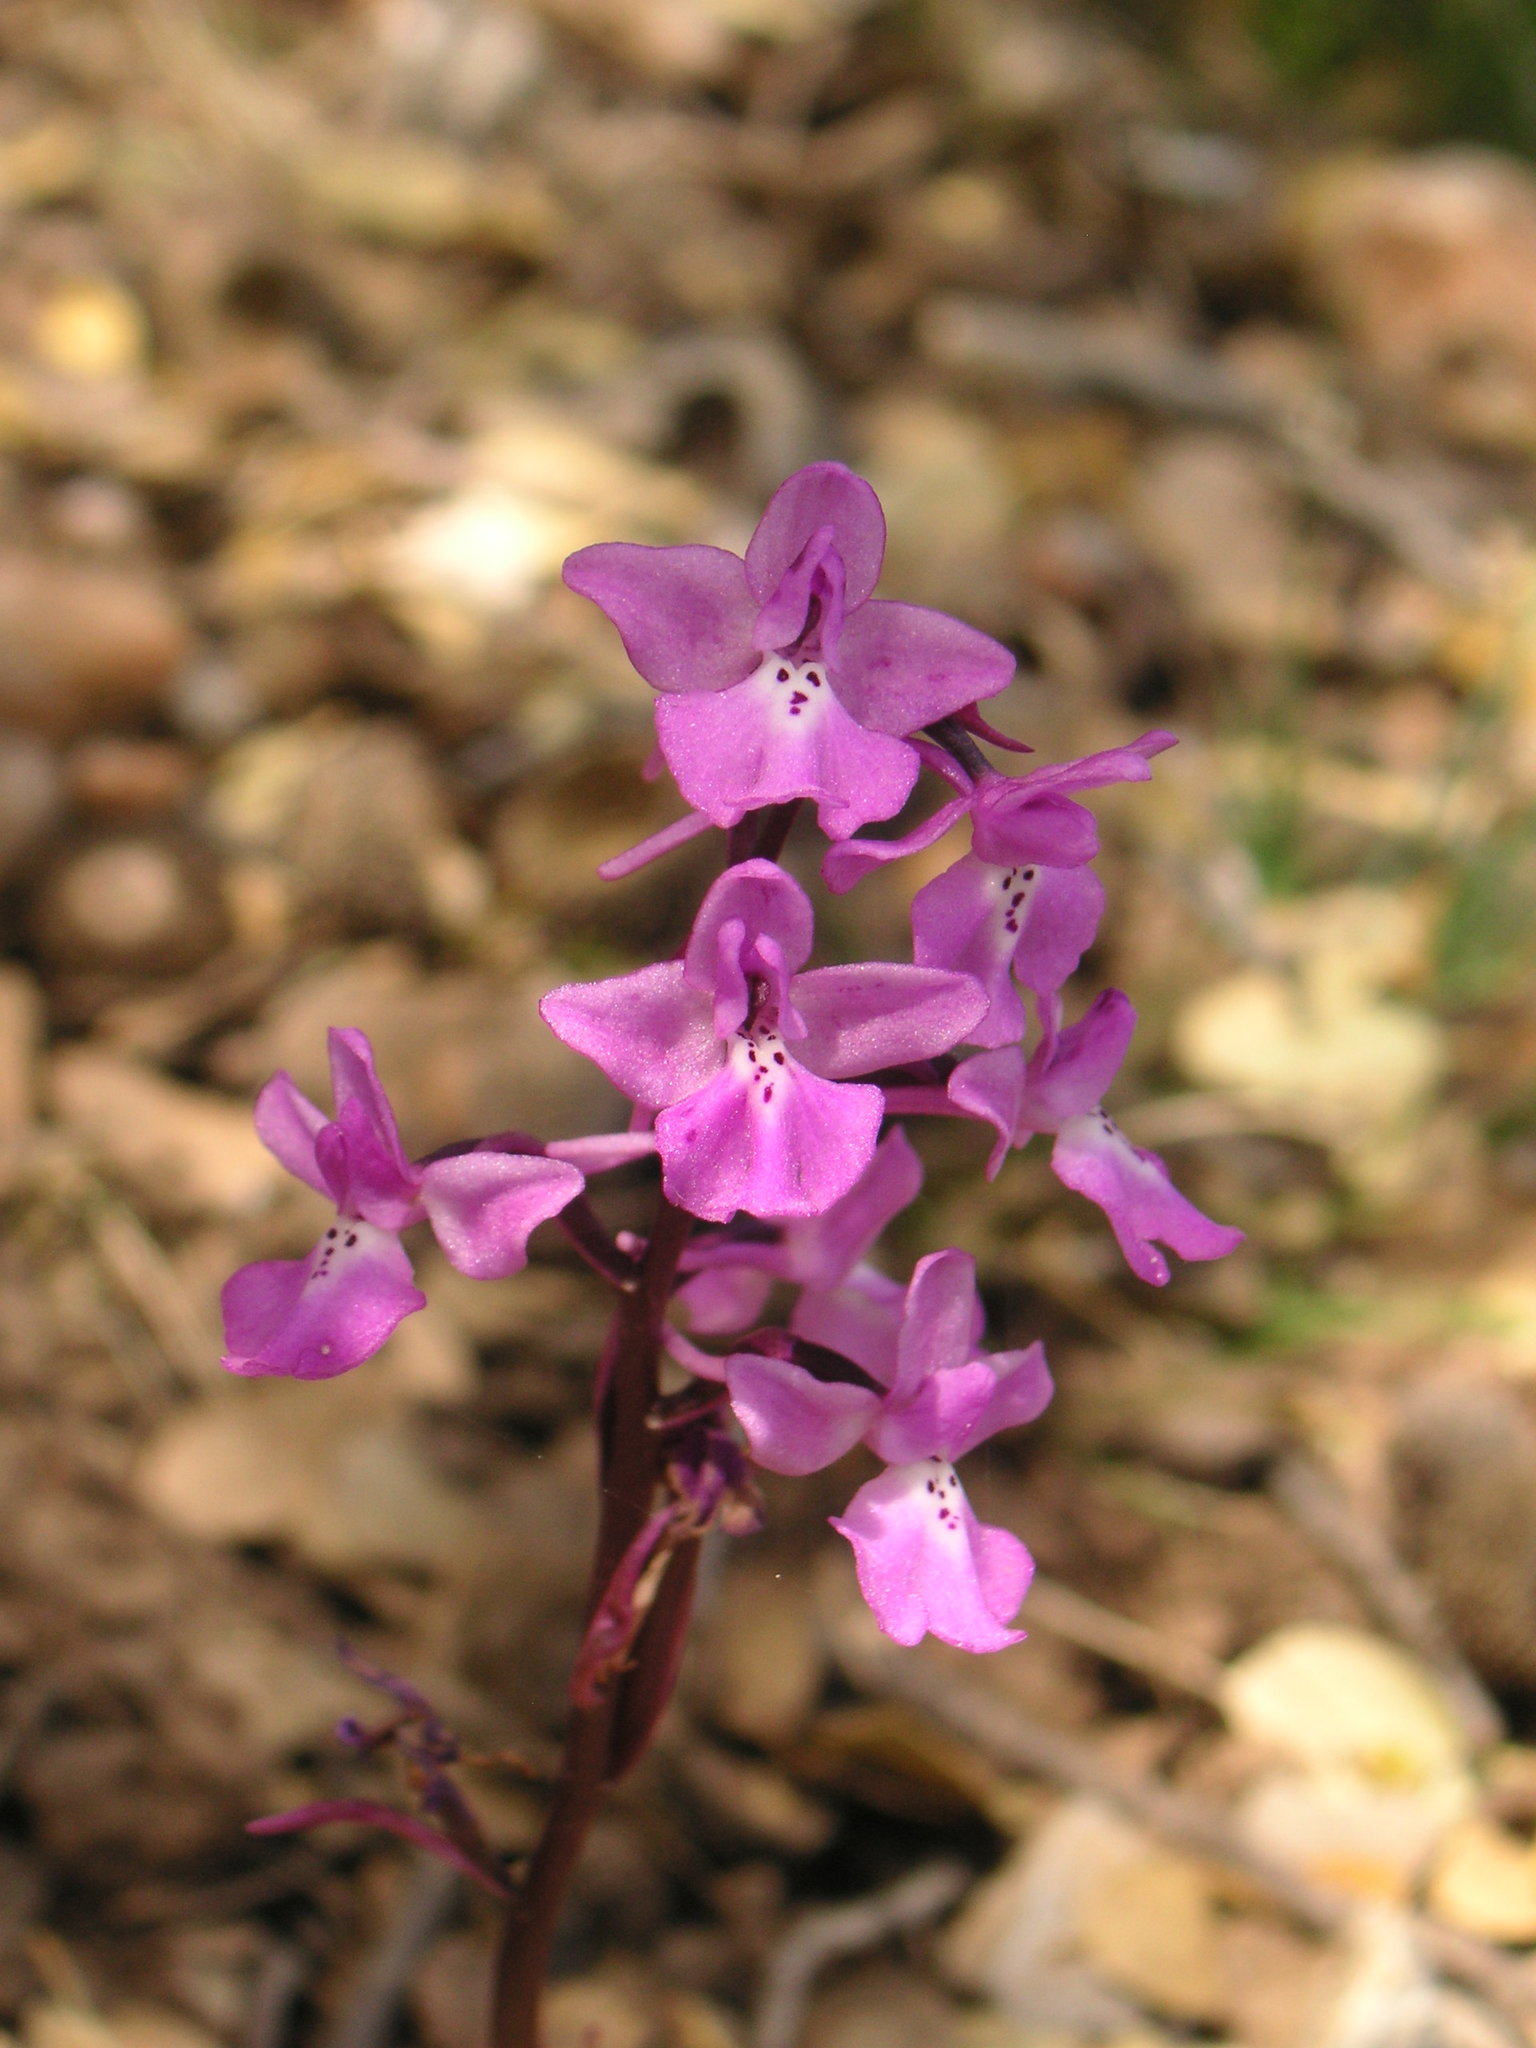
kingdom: Plantae
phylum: Tracheophyta
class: Liliopsida
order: Asparagales
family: Orchidaceae
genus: Orchis
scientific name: Orchis anatolica
